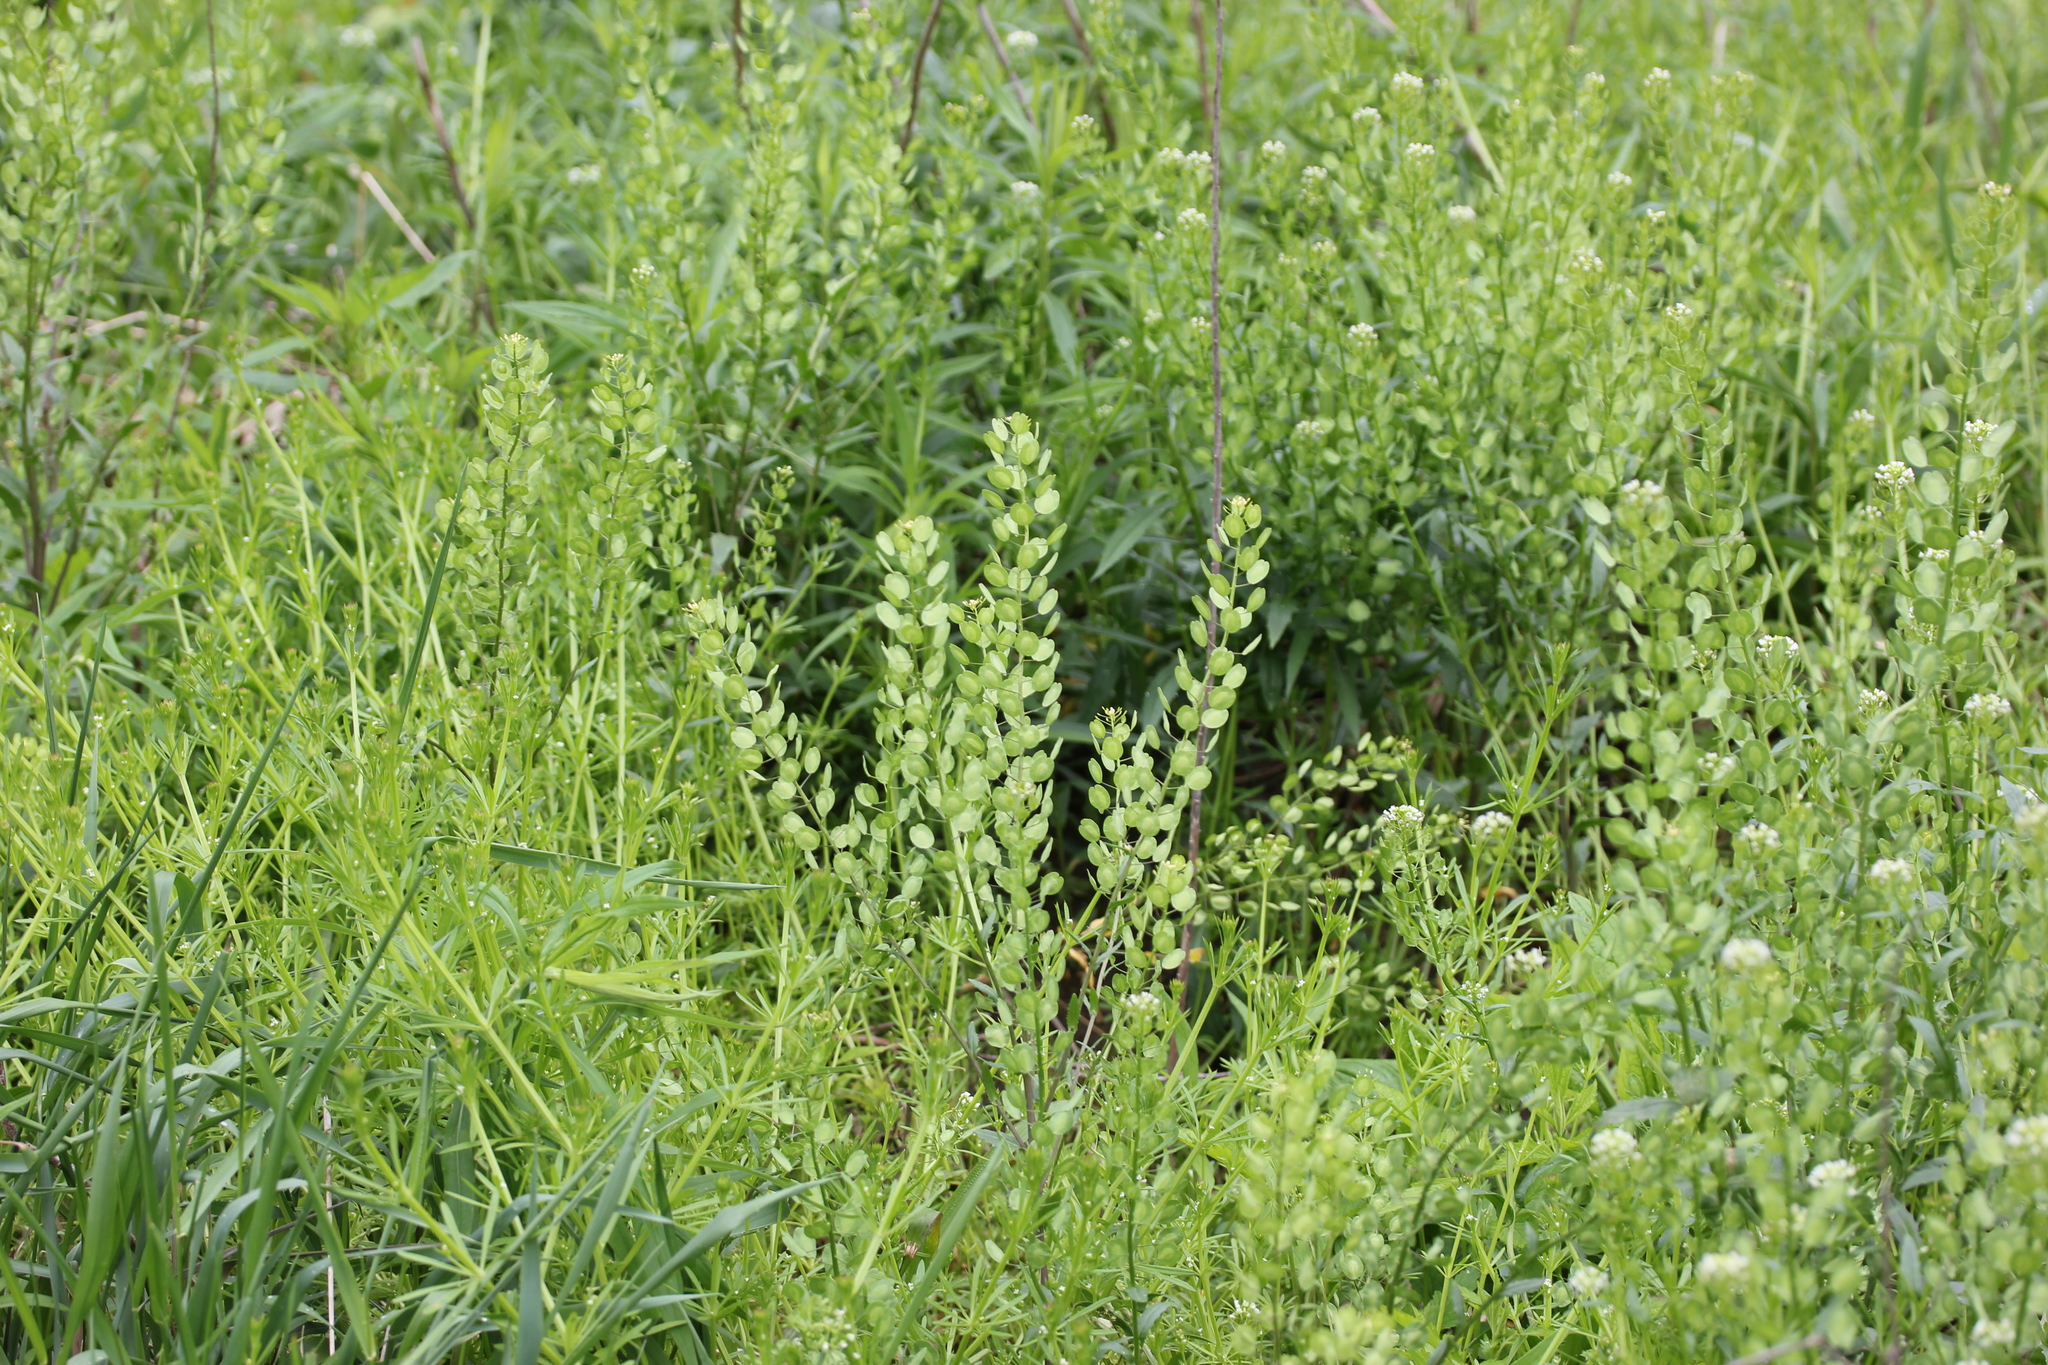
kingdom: Plantae
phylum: Tracheophyta
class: Magnoliopsida
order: Brassicales
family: Brassicaceae
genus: Thlaspi
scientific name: Thlaspi arvense
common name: Field pennycress
